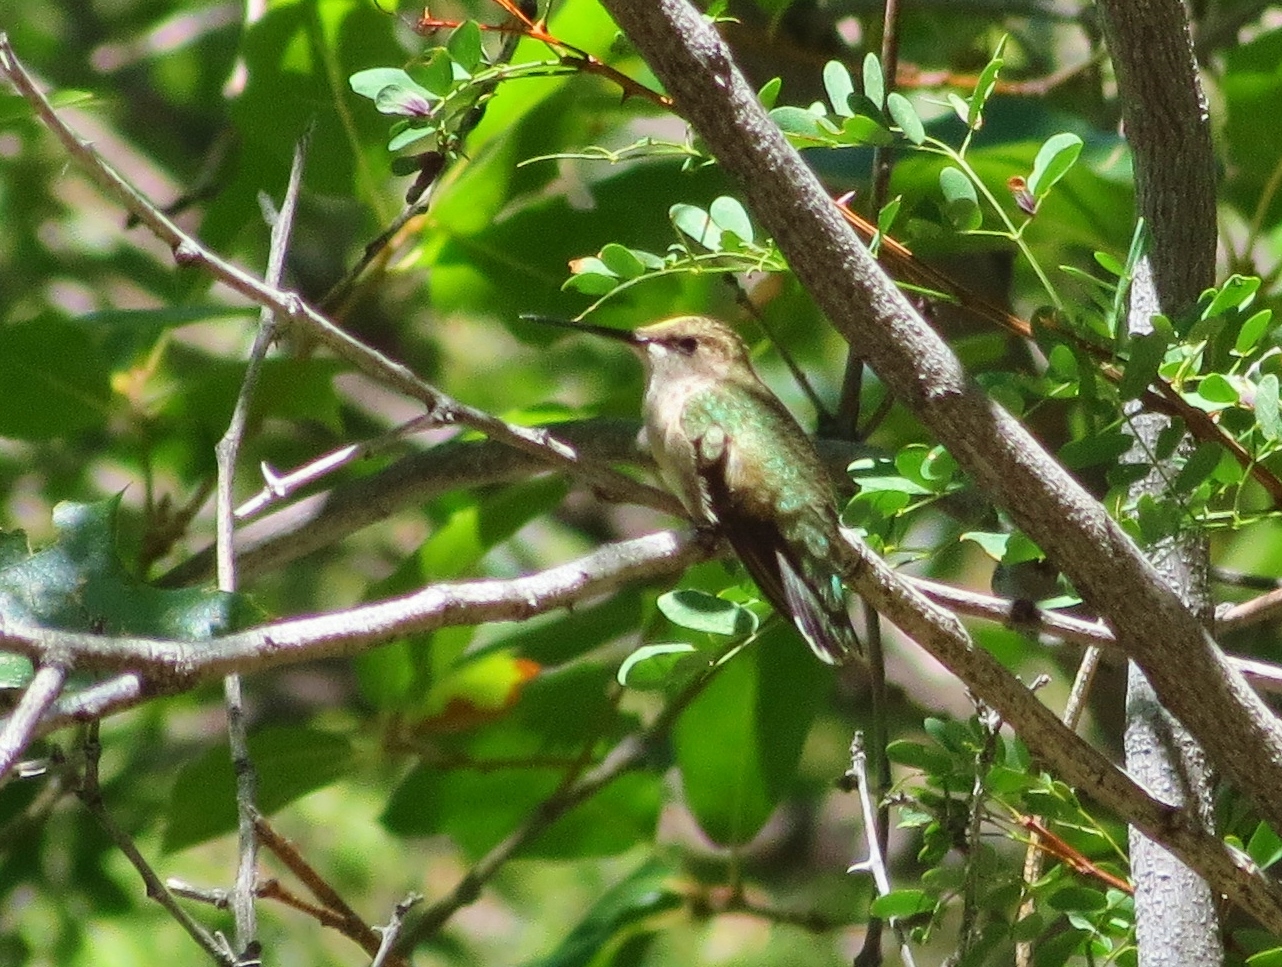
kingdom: Animalia
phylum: Chordata
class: Aves
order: Apodiformes
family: Trochilidae
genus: Archilochus
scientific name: Archilochus alexandri
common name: Black-chinned hummingbird
